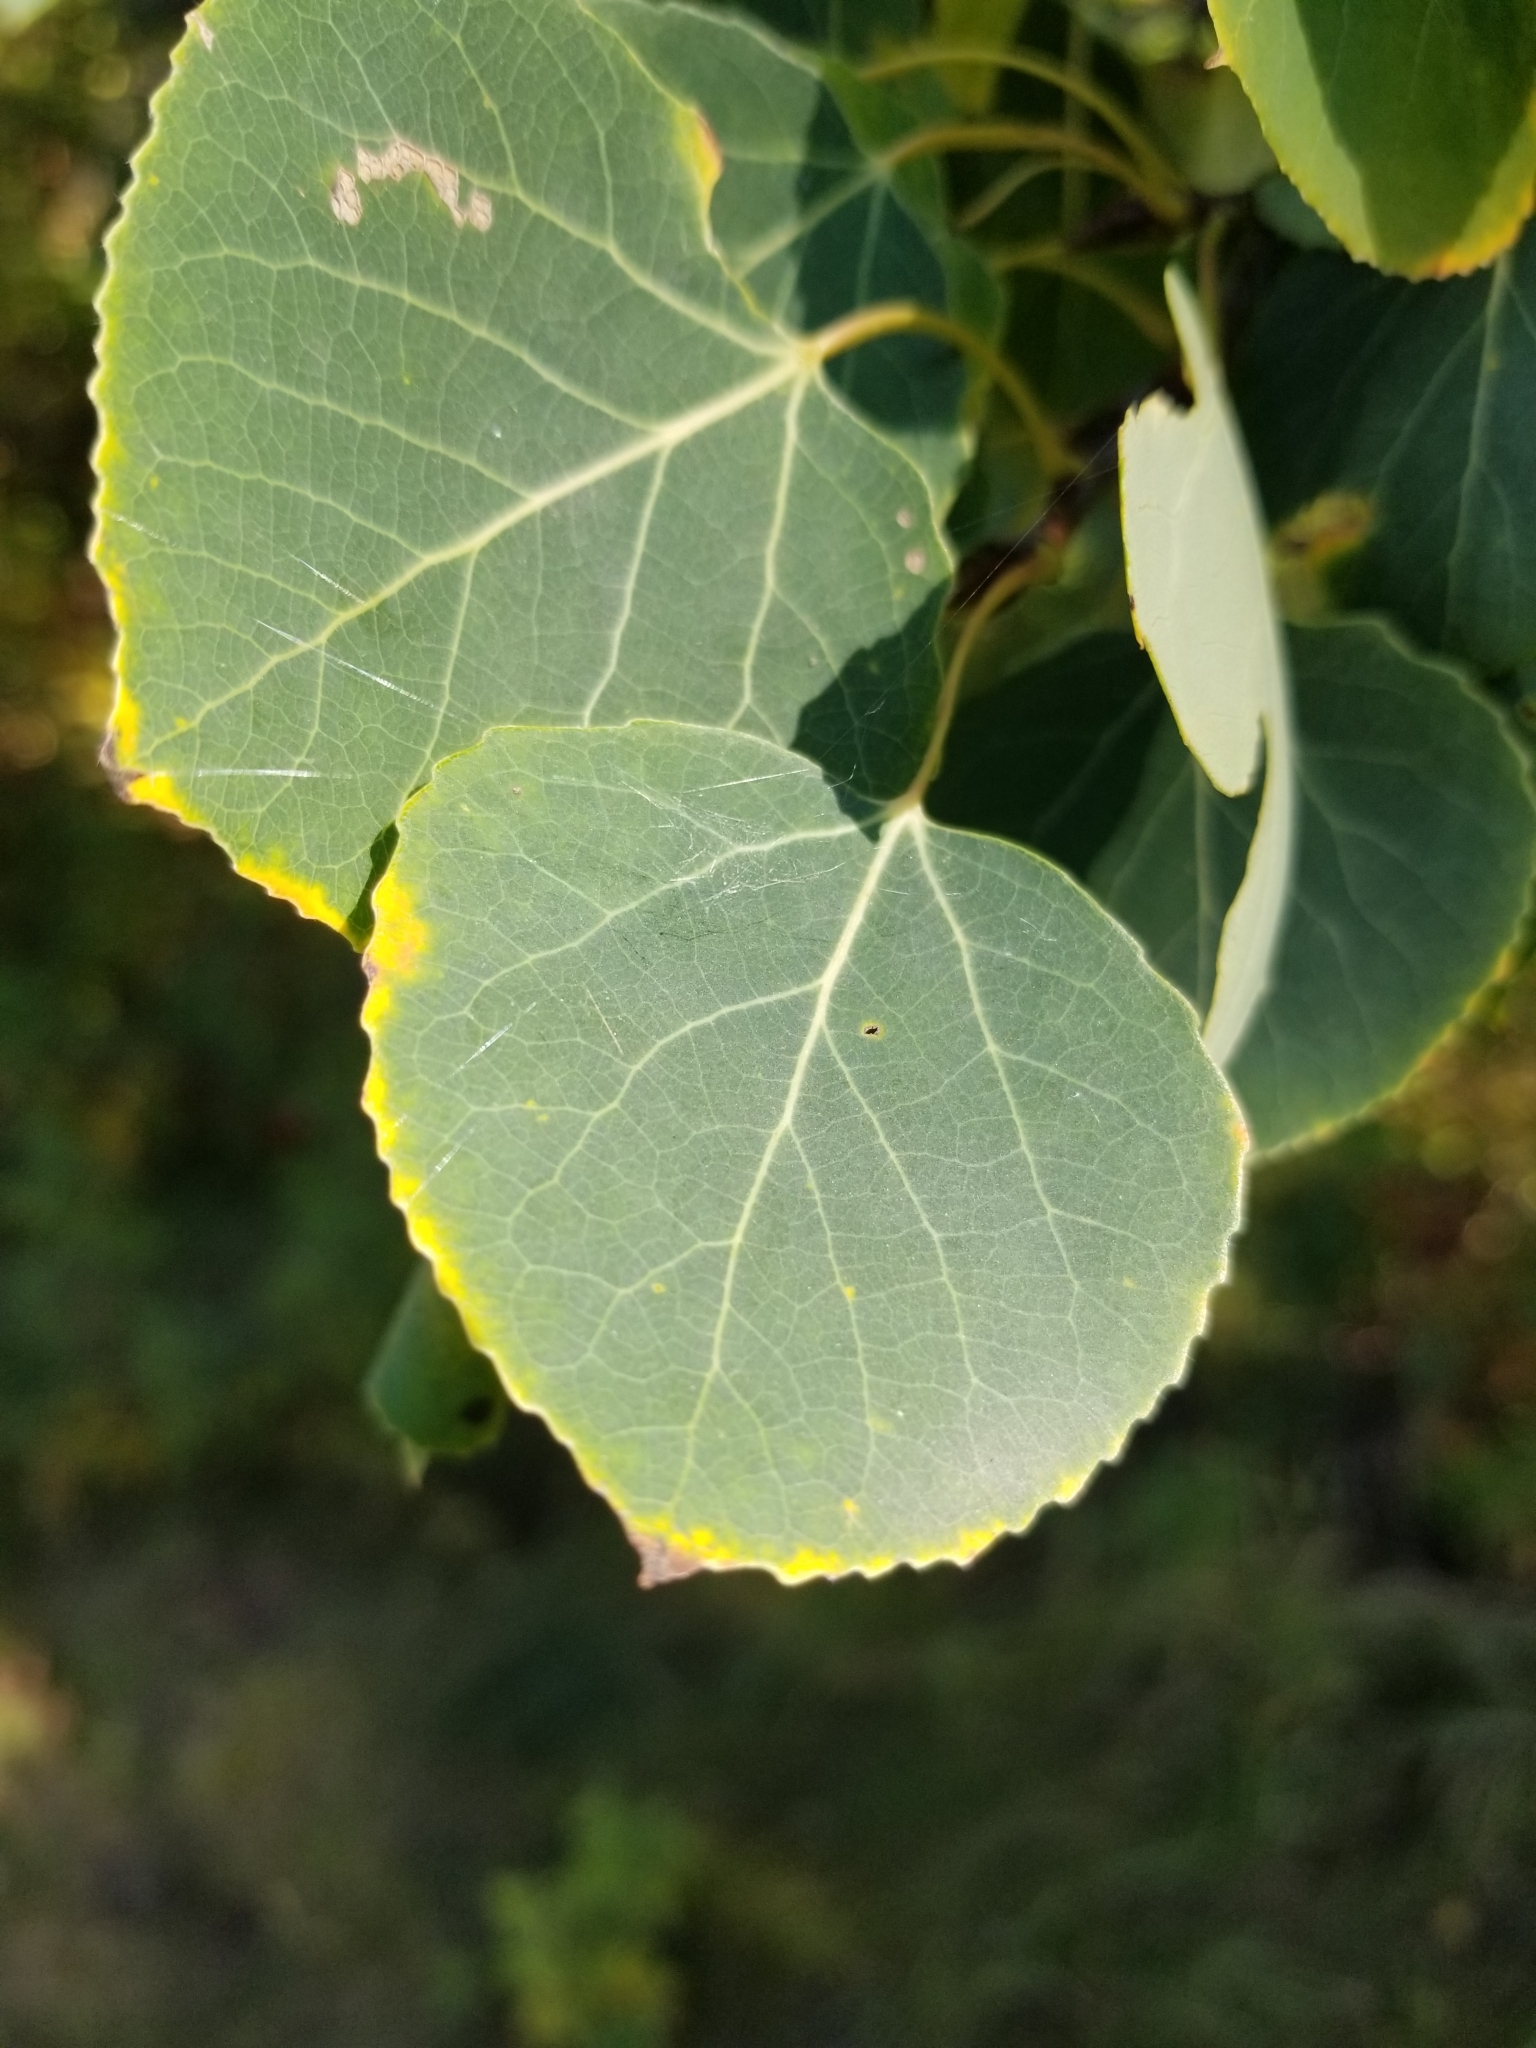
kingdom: Plantae
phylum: Tracheophyta
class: Magnoliopsida
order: Malpighiales
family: Salicaceae
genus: Populus
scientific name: Populus tremuloides
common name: Quaking aspen
